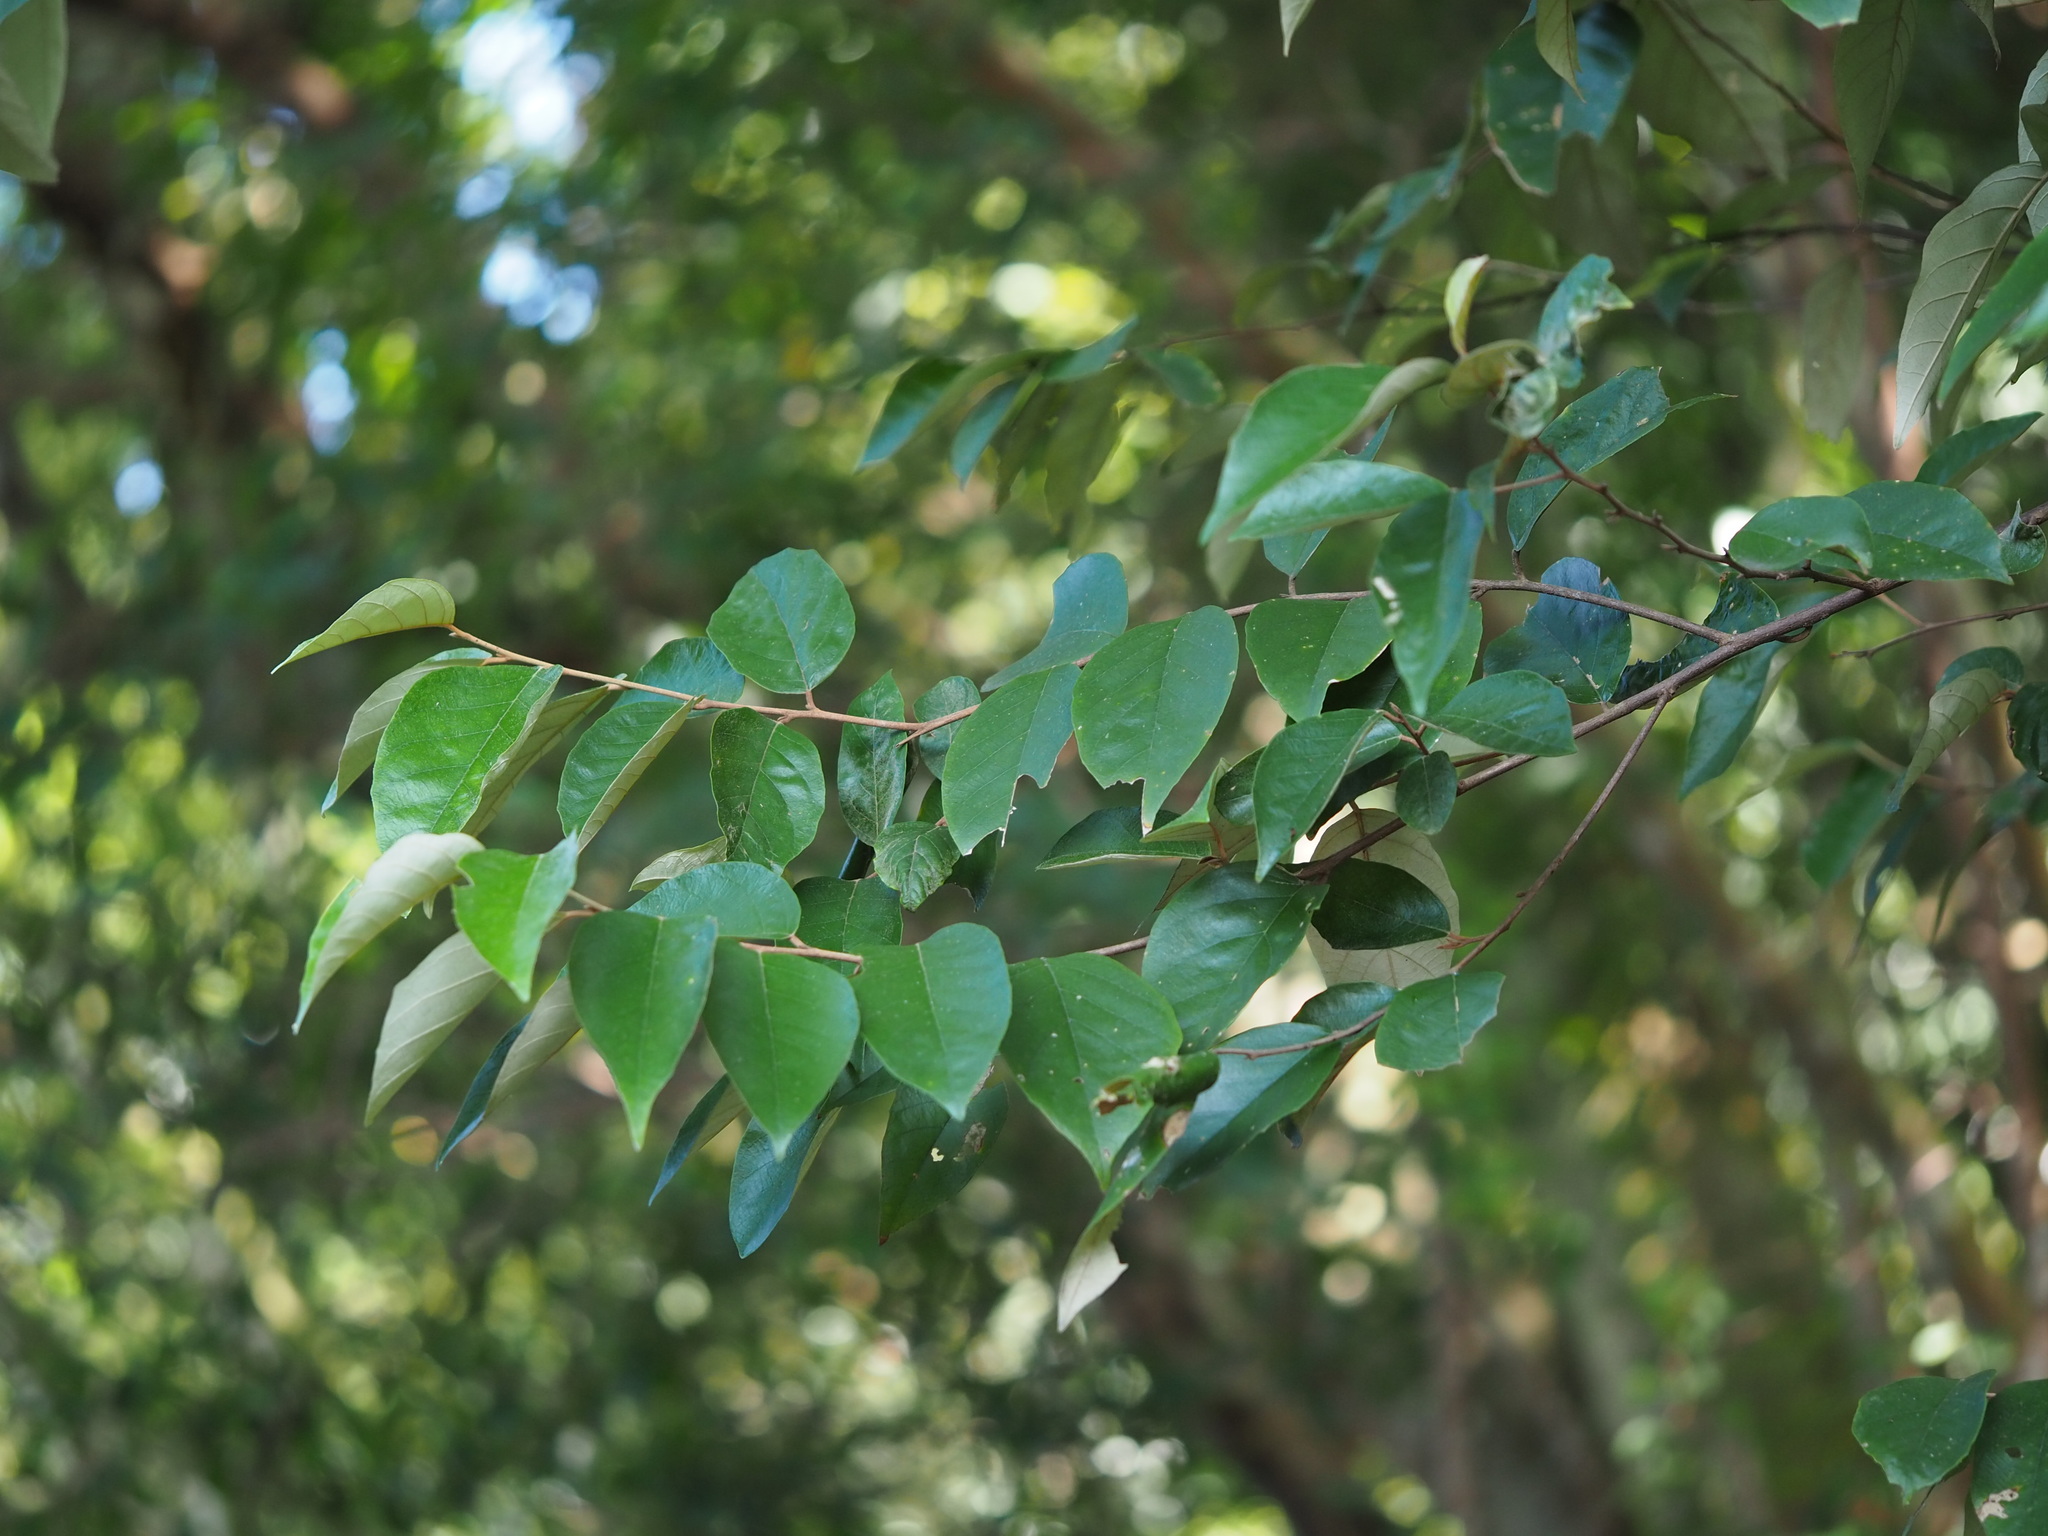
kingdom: Plantae
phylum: Tracheophyta
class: Magnoliopsida
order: Ericales
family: Styracaceae
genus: Styrax
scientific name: Styrax suberifolius
